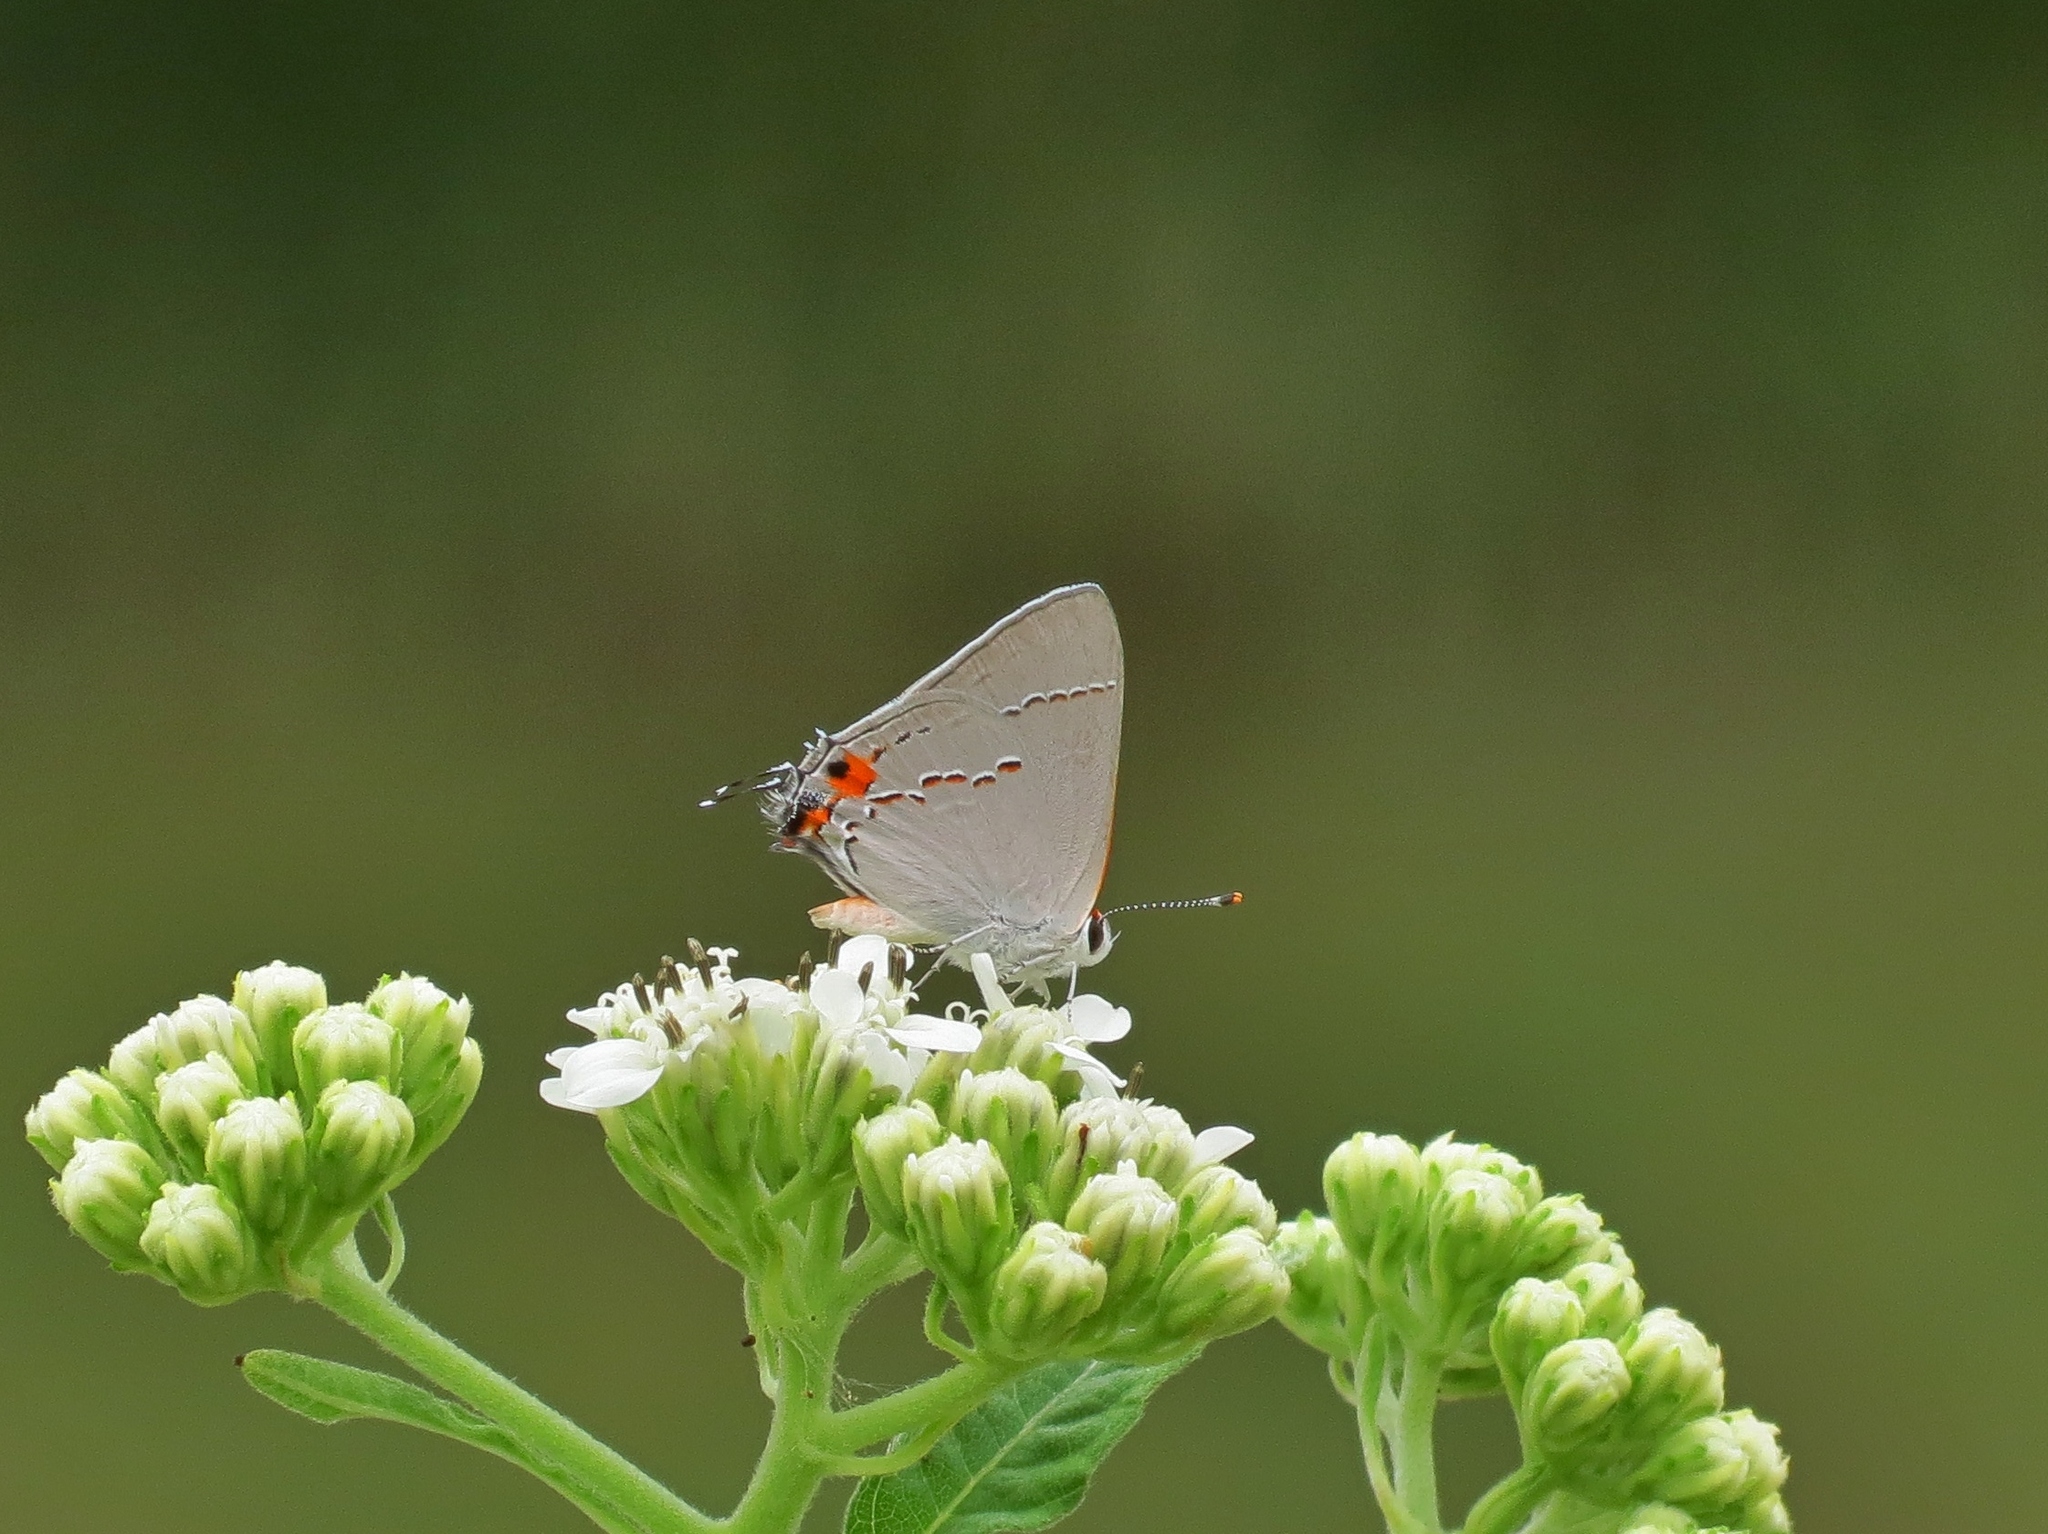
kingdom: Animalia
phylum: Arthropoda
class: Insecta
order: Lepidoptera
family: Lycaenidae
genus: Strymon
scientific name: Strymon melinus
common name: Gray hairstreak
